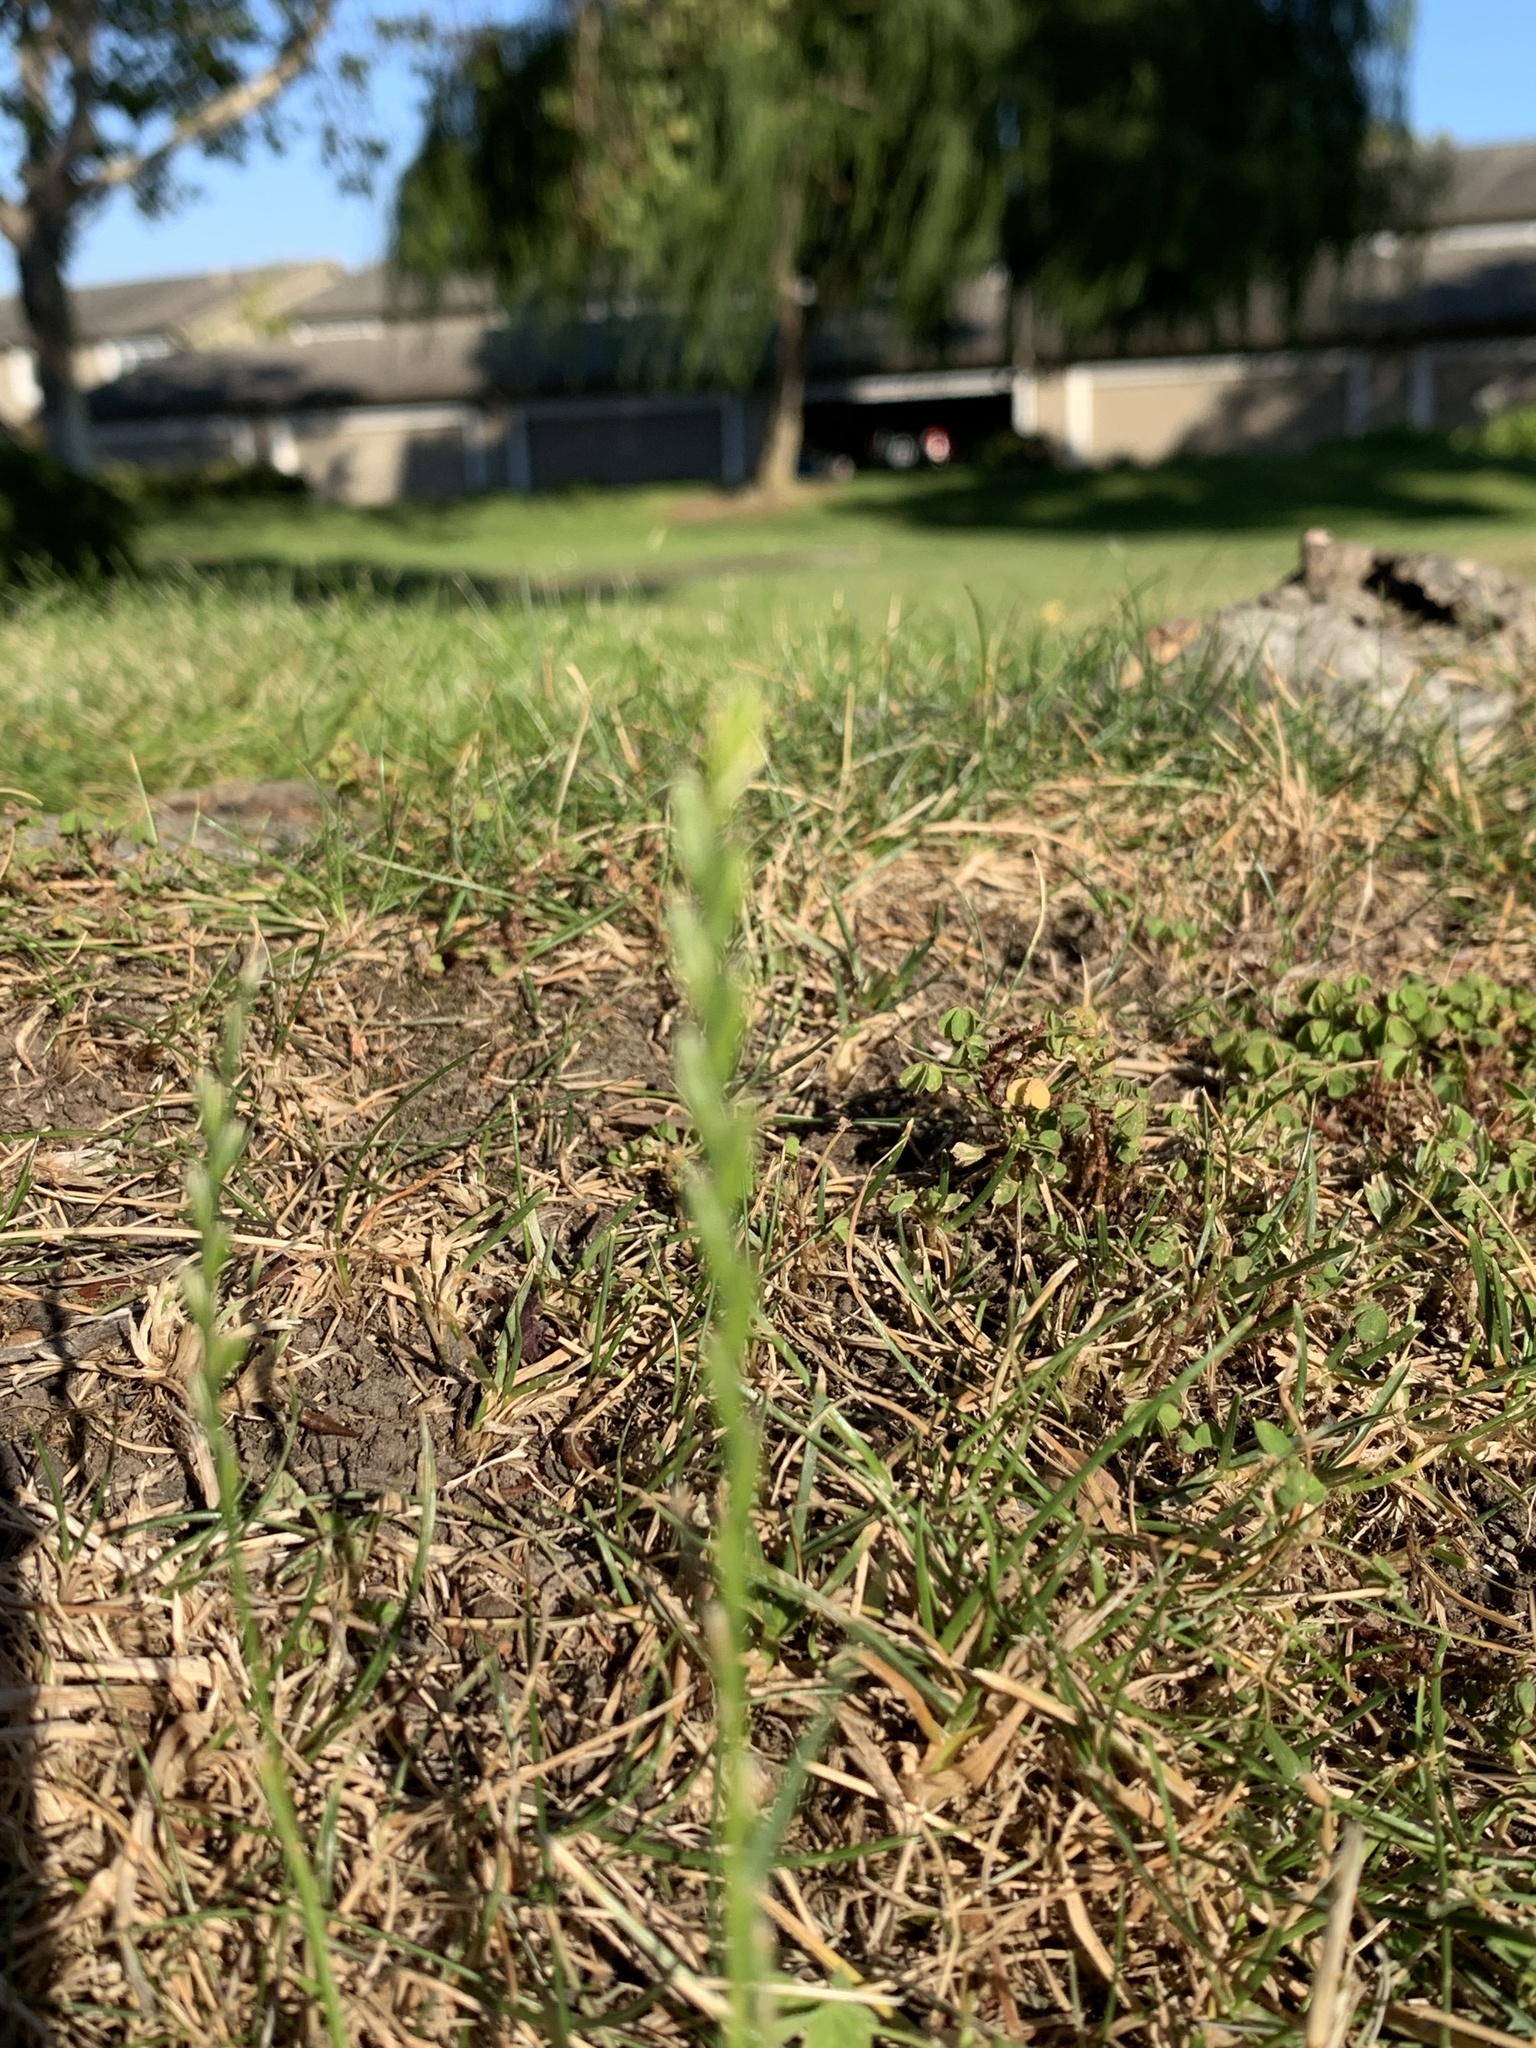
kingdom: Plantae
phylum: Tracheophyta
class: Liliopsida
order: Poales
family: Poaceae
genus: Lolium
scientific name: Lolium perenne
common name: Perennial ryegrass
